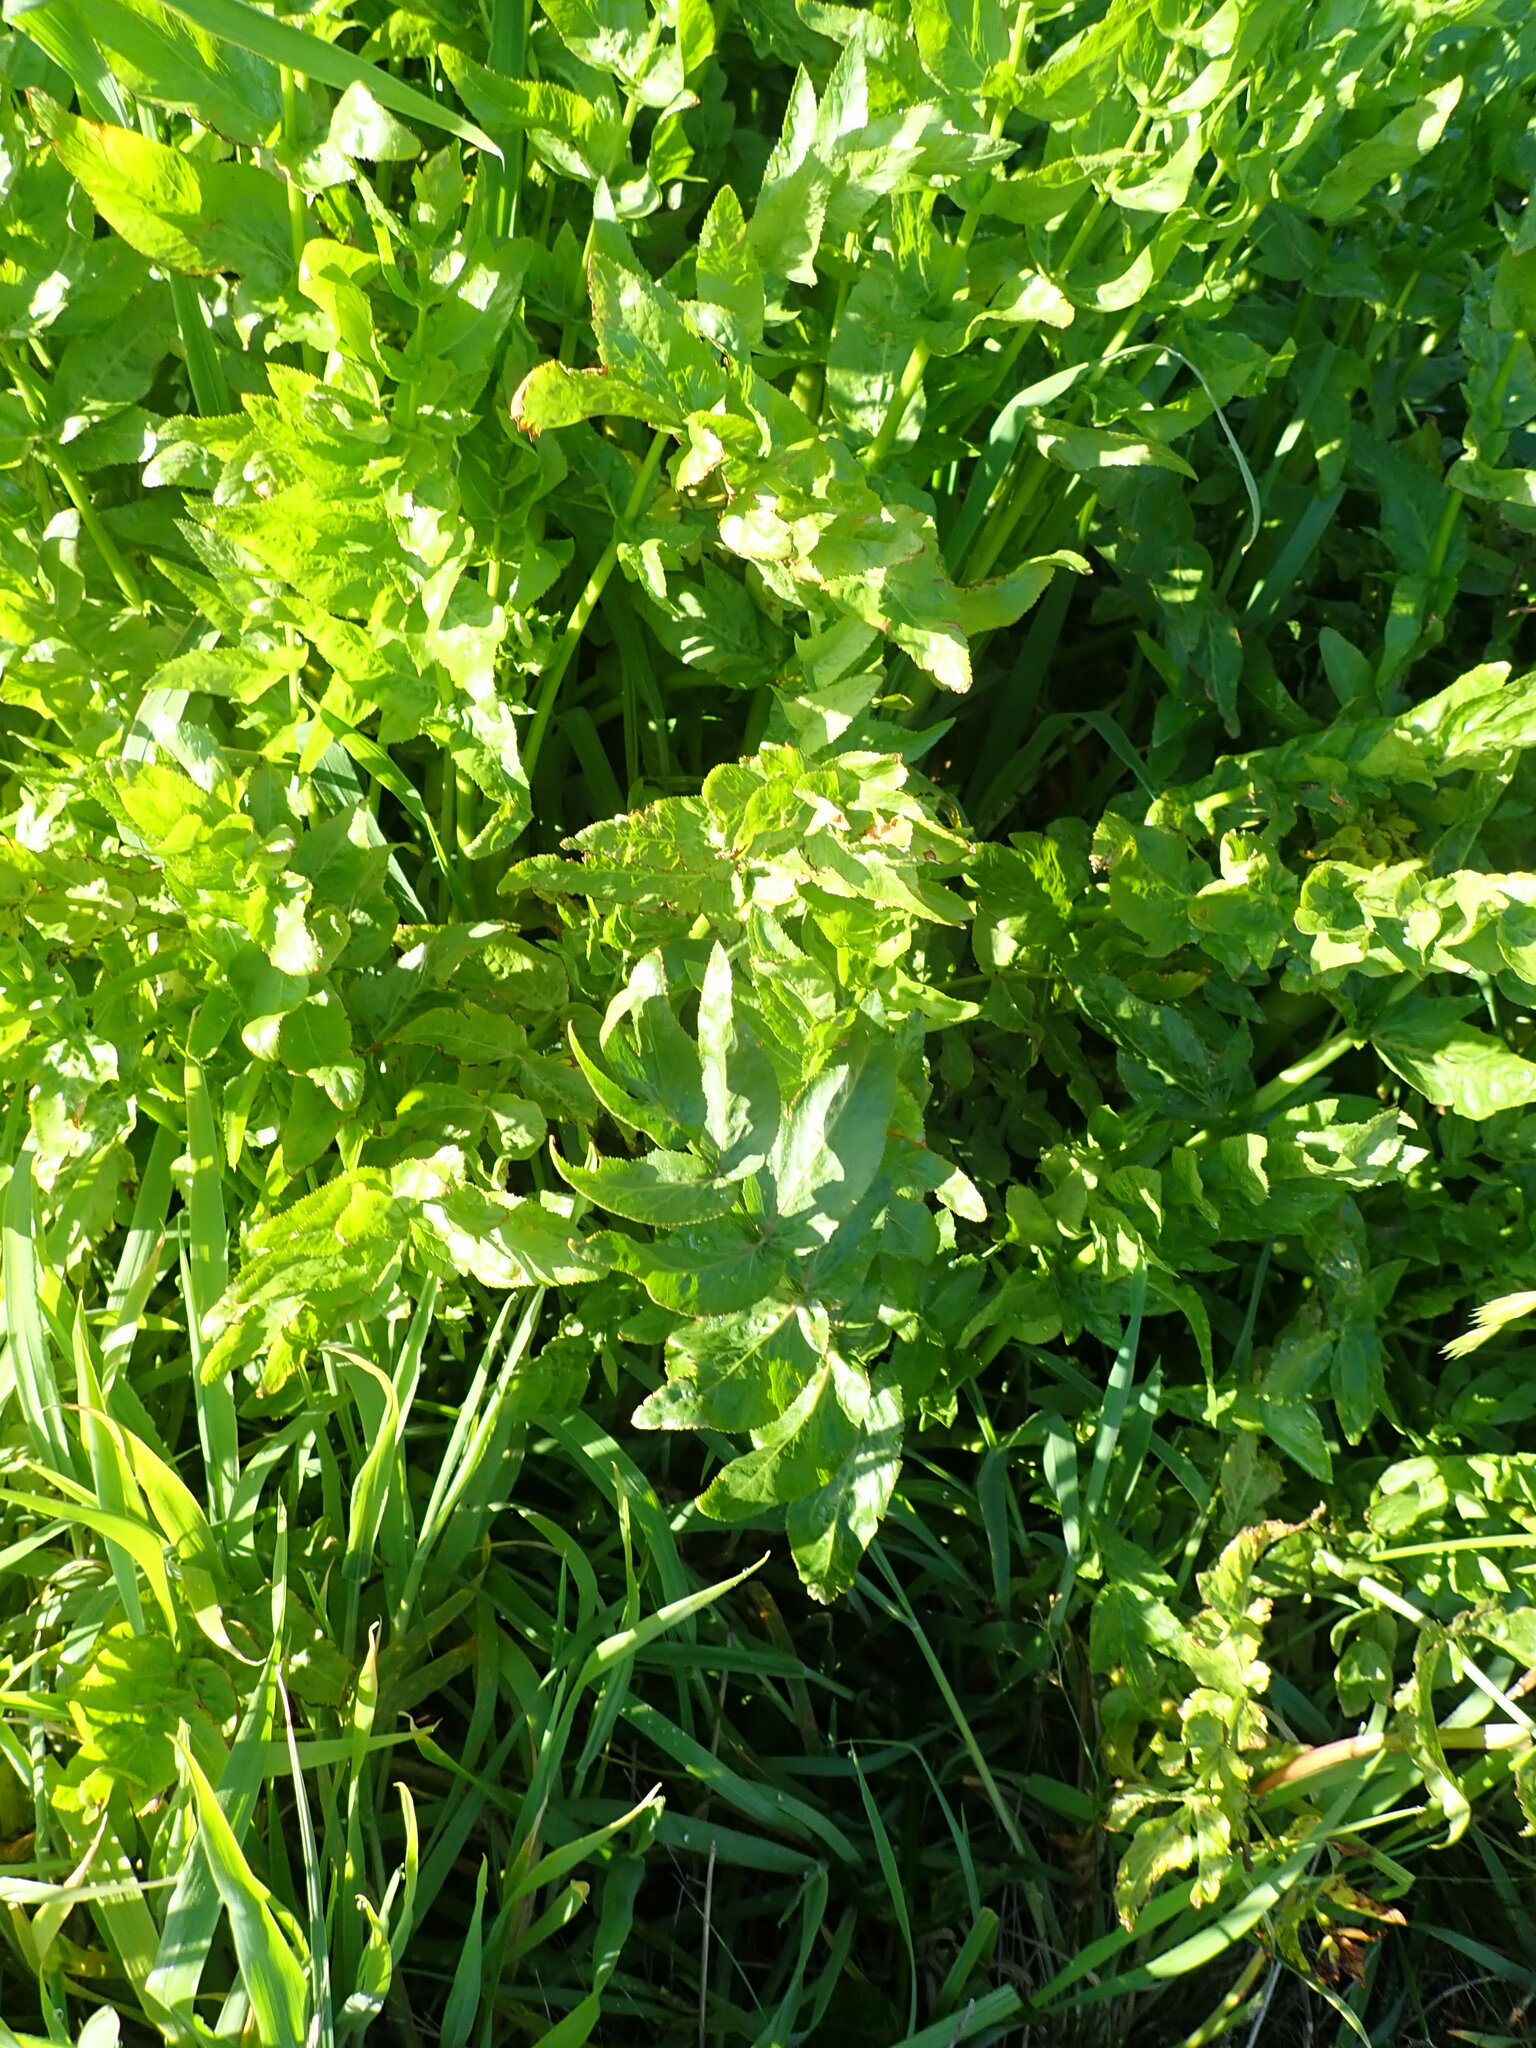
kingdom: Plantae
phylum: Tracheophyta
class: Magnoliopsida
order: Apiales
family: Apiaceae
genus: Helosciadium
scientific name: Helosciadium nodiflorum
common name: Fool's-watercress
